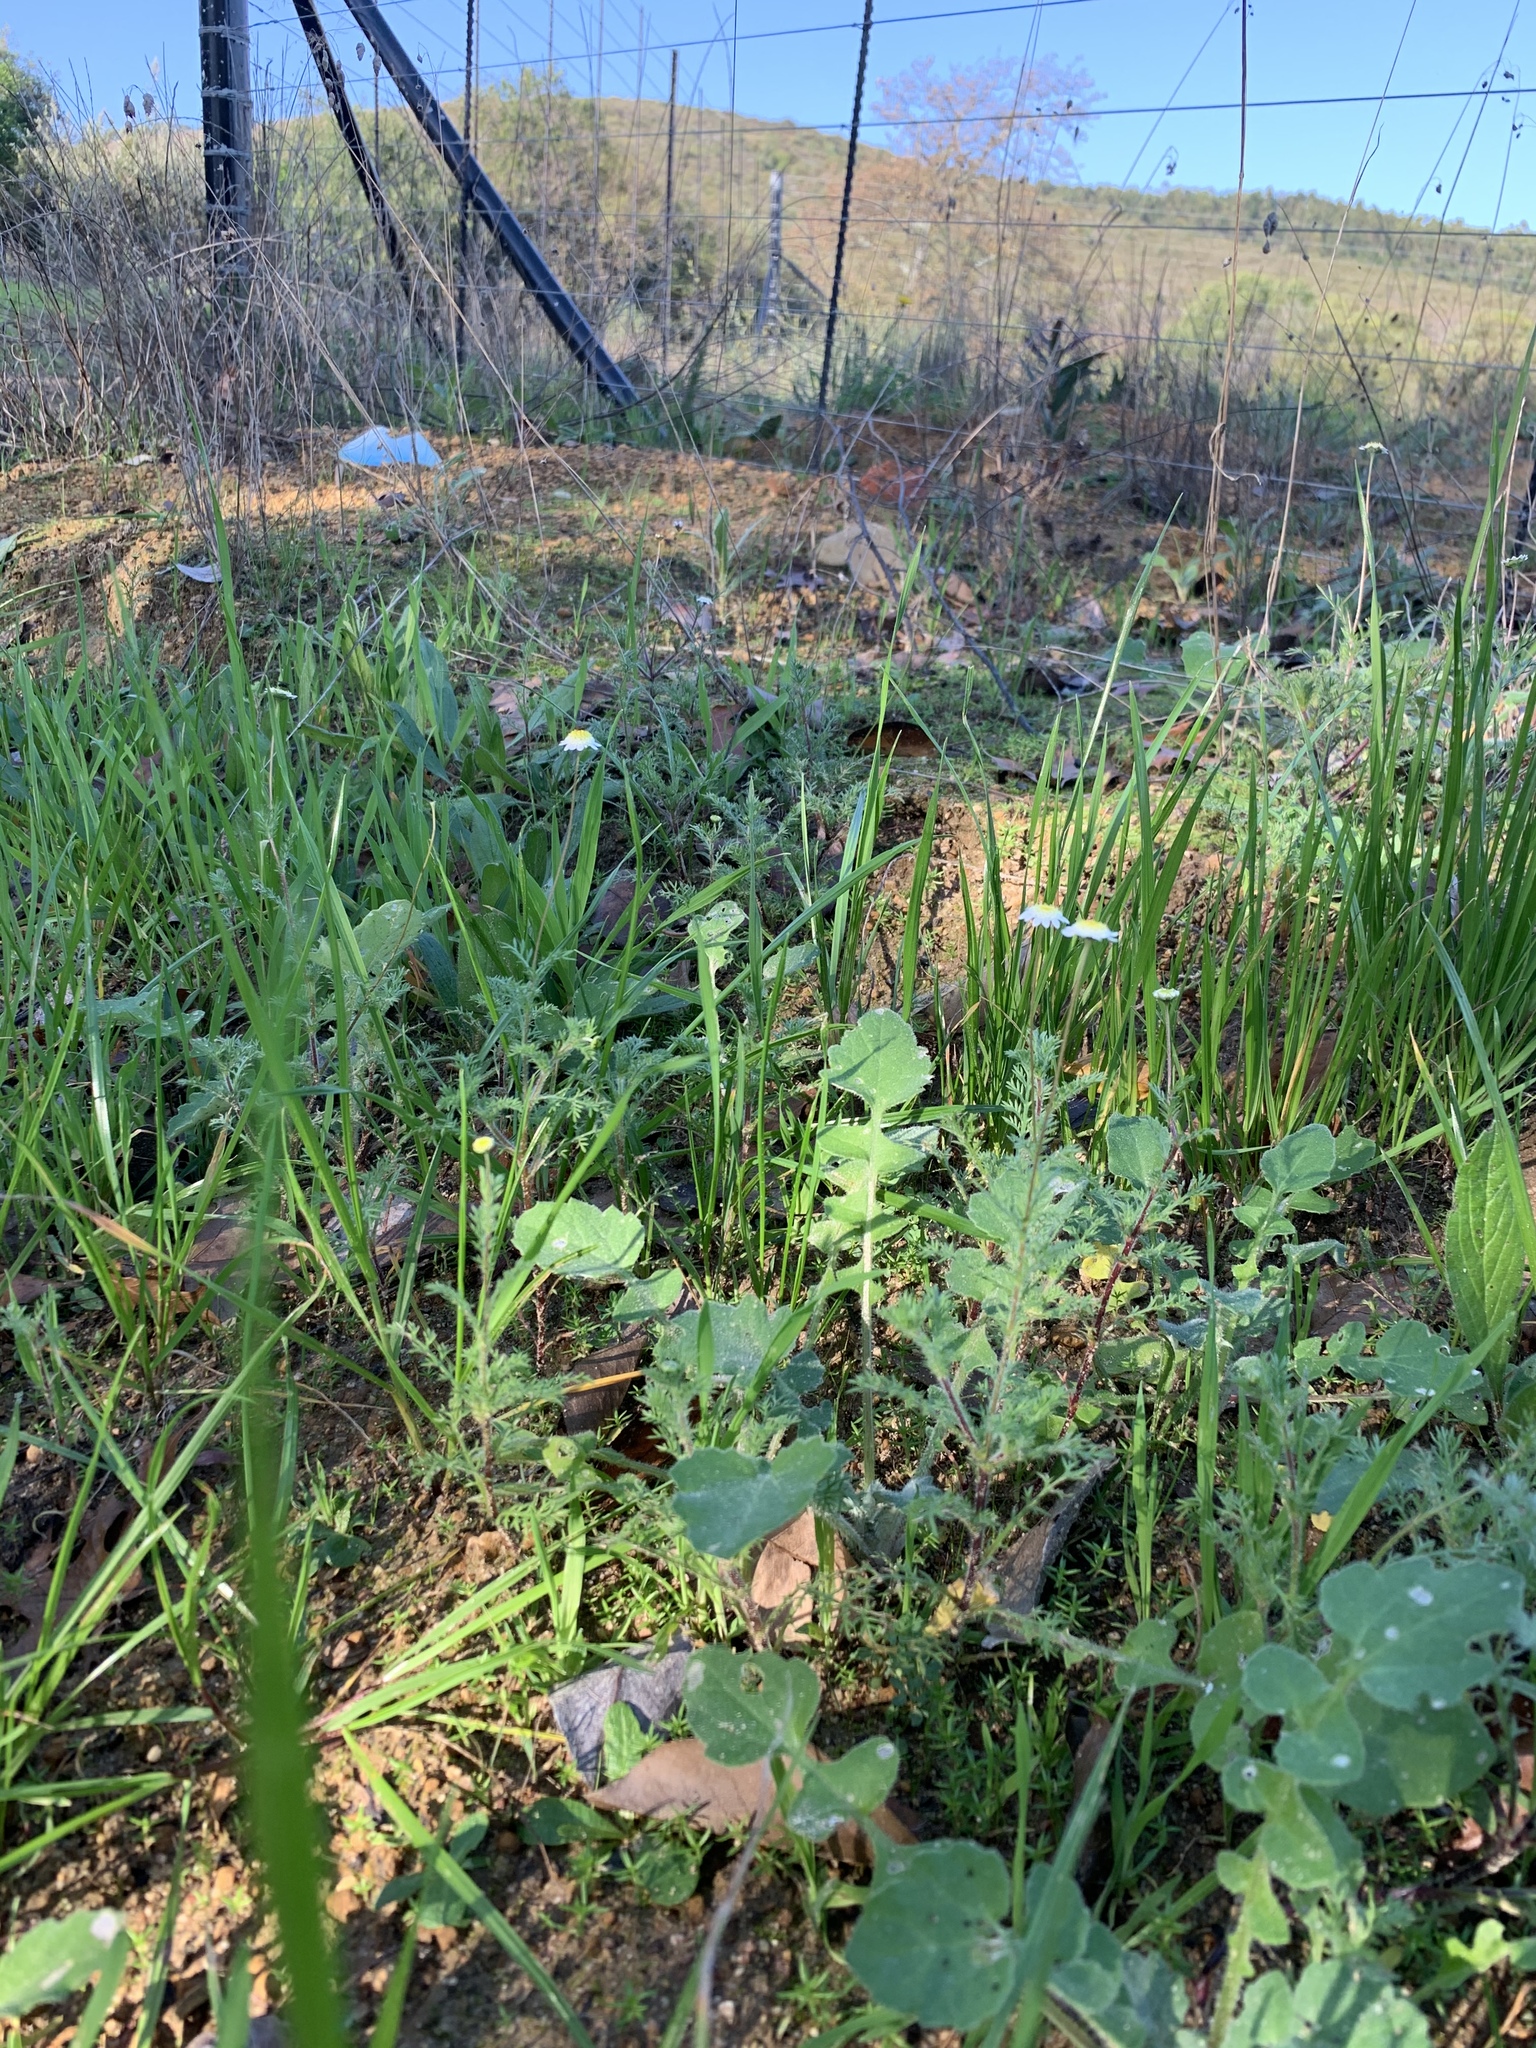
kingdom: Plantae
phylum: Tracheophyta
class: Magnoliopsida
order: Asterales
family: Asteraceae
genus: Cotula
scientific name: Cotula turbinata
